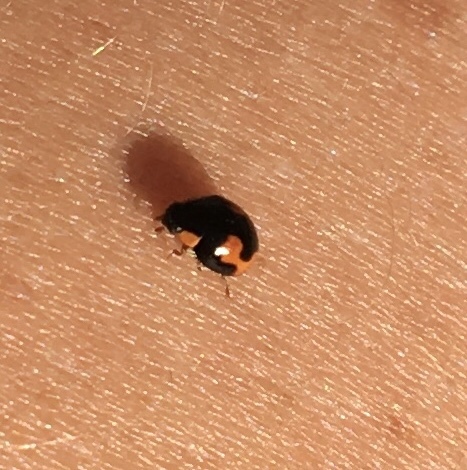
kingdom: Animalia
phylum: Arthropoda
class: Insecta
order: Coleoptera
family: Coccinellidae
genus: Hyperaspis
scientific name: Hyperaspis connectens
